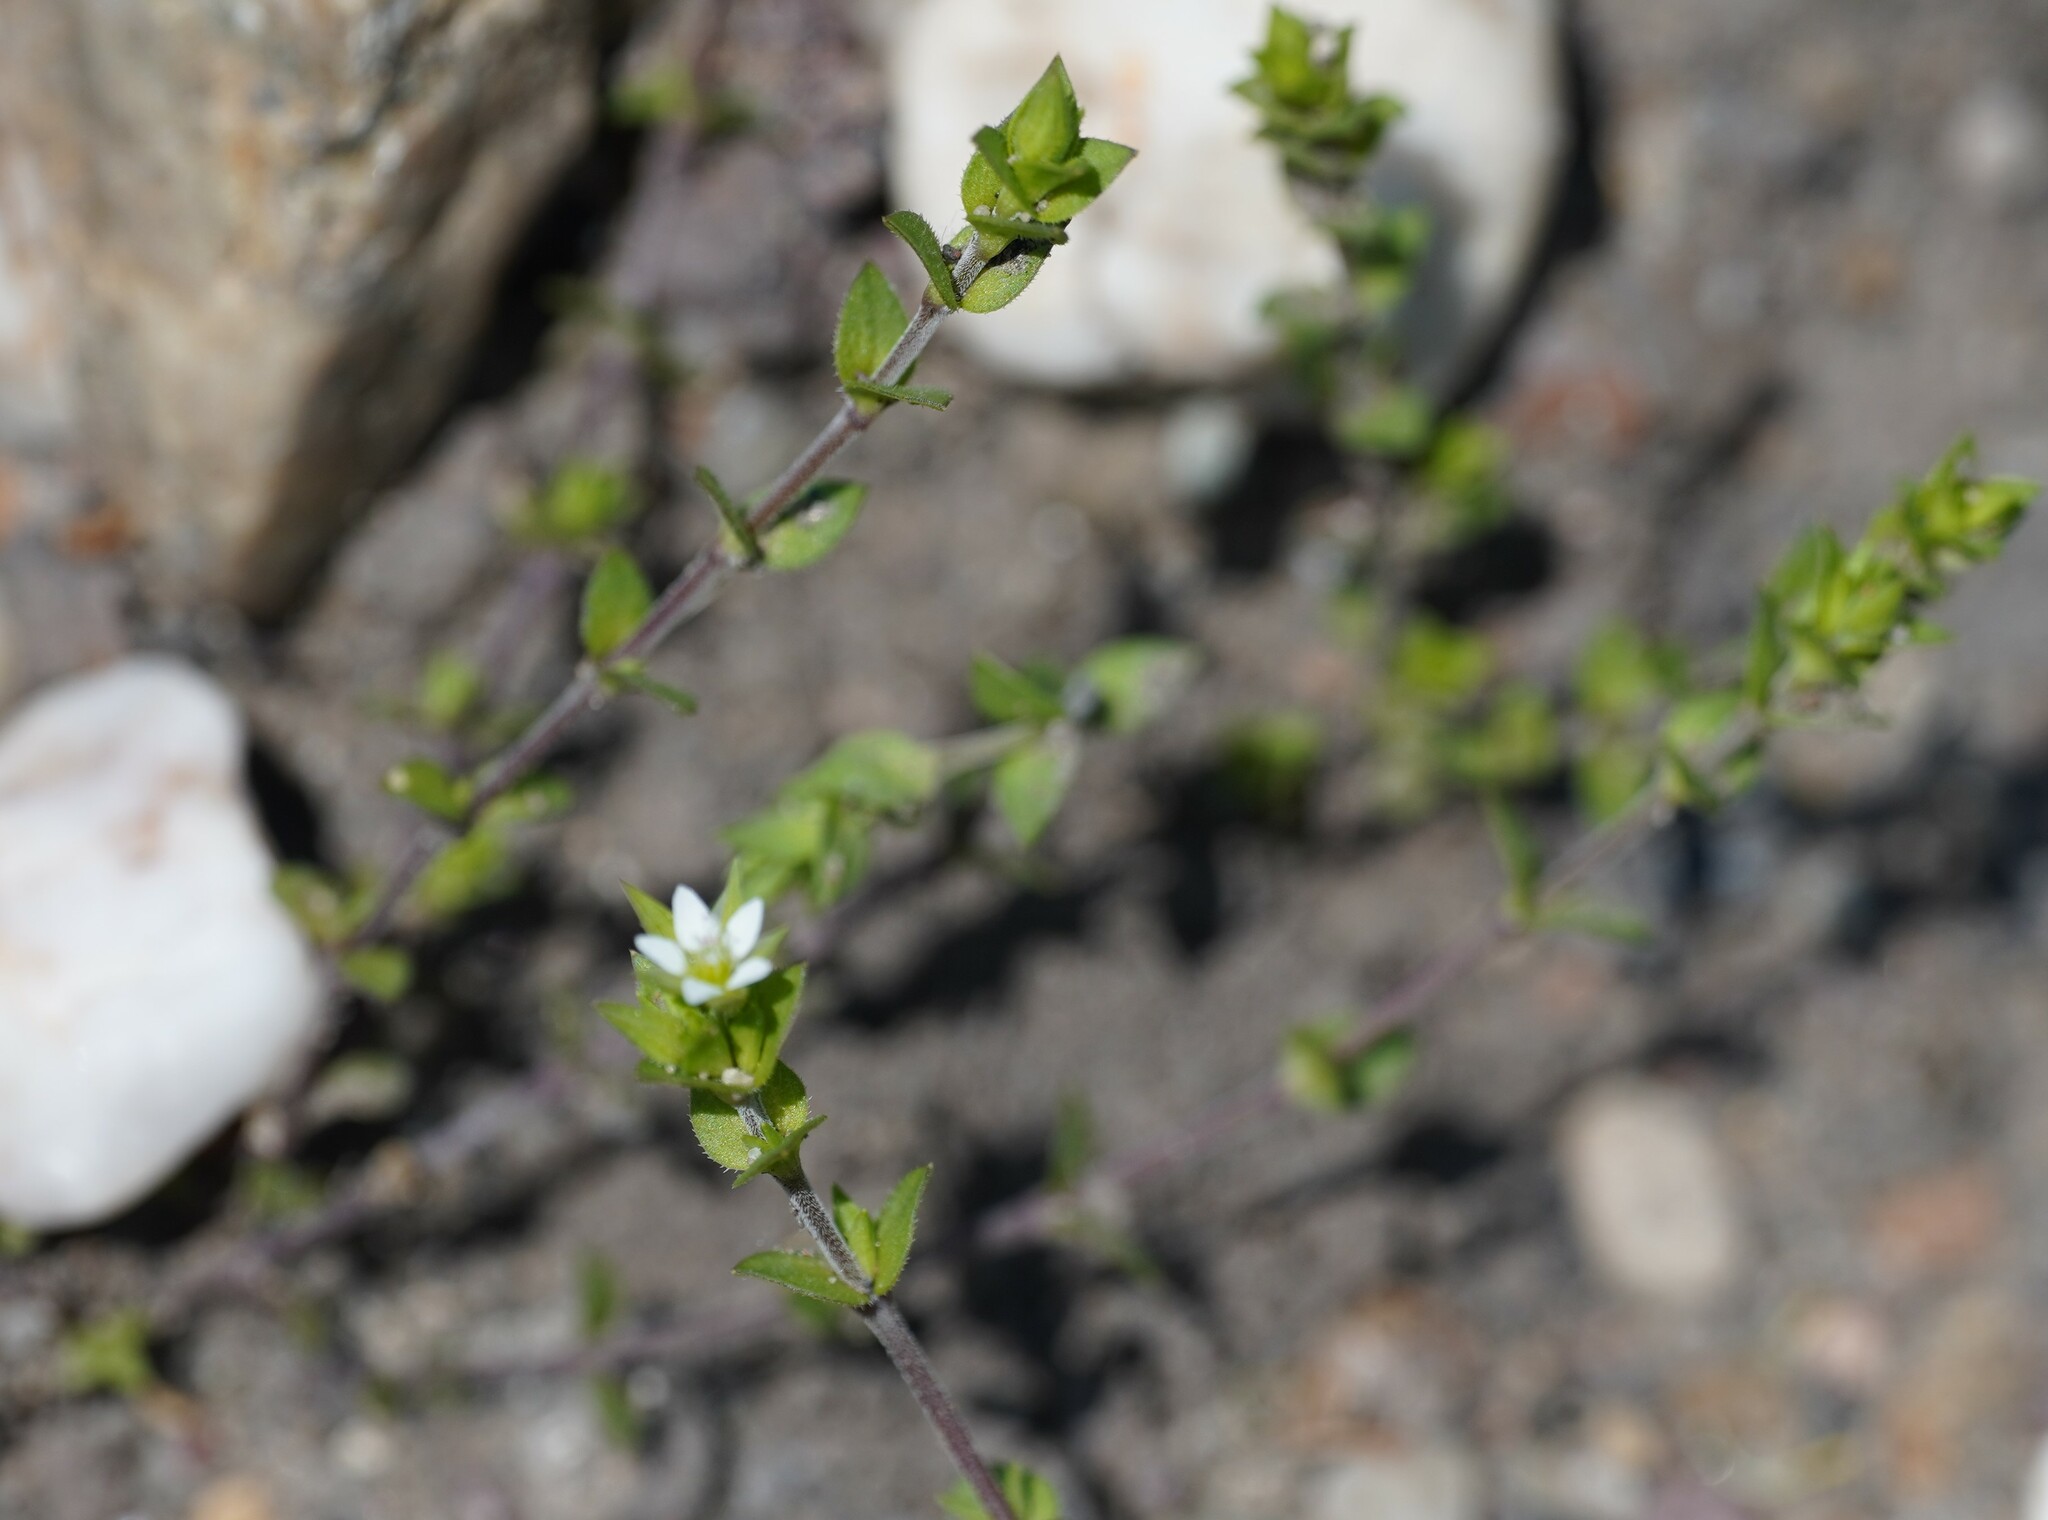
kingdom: Plantae
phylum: Tracheophyta
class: Magnoliopsida
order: Caryophyllales
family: Caryophyllaceae
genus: Arenaria
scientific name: Arenaria serpyllifolia
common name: Thyme-leaved sandwort
